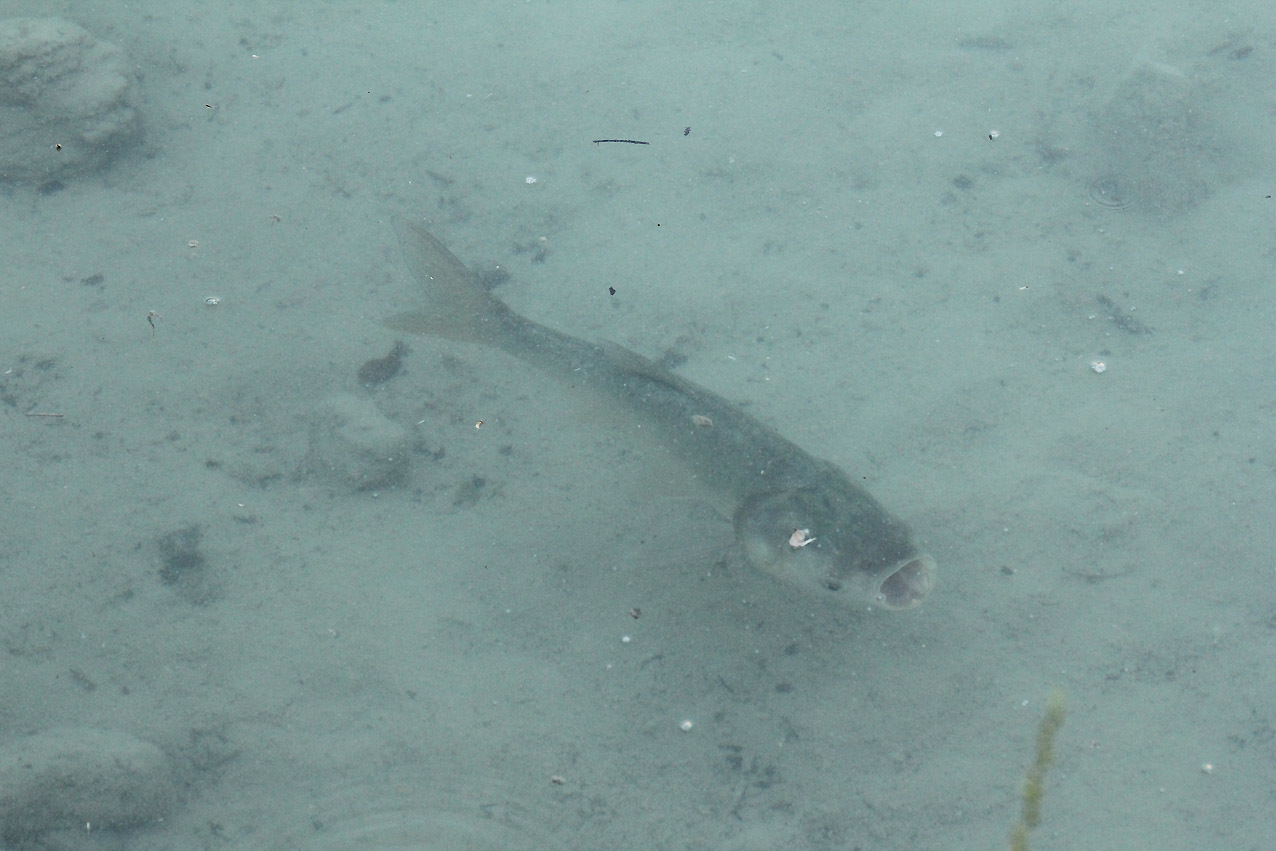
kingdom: Animalia
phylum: Chordata
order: Cypriniformes
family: Cyprinidae
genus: Hypophthalmichthys
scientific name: Hypophthalmichthys molitrix
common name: Silver carp
